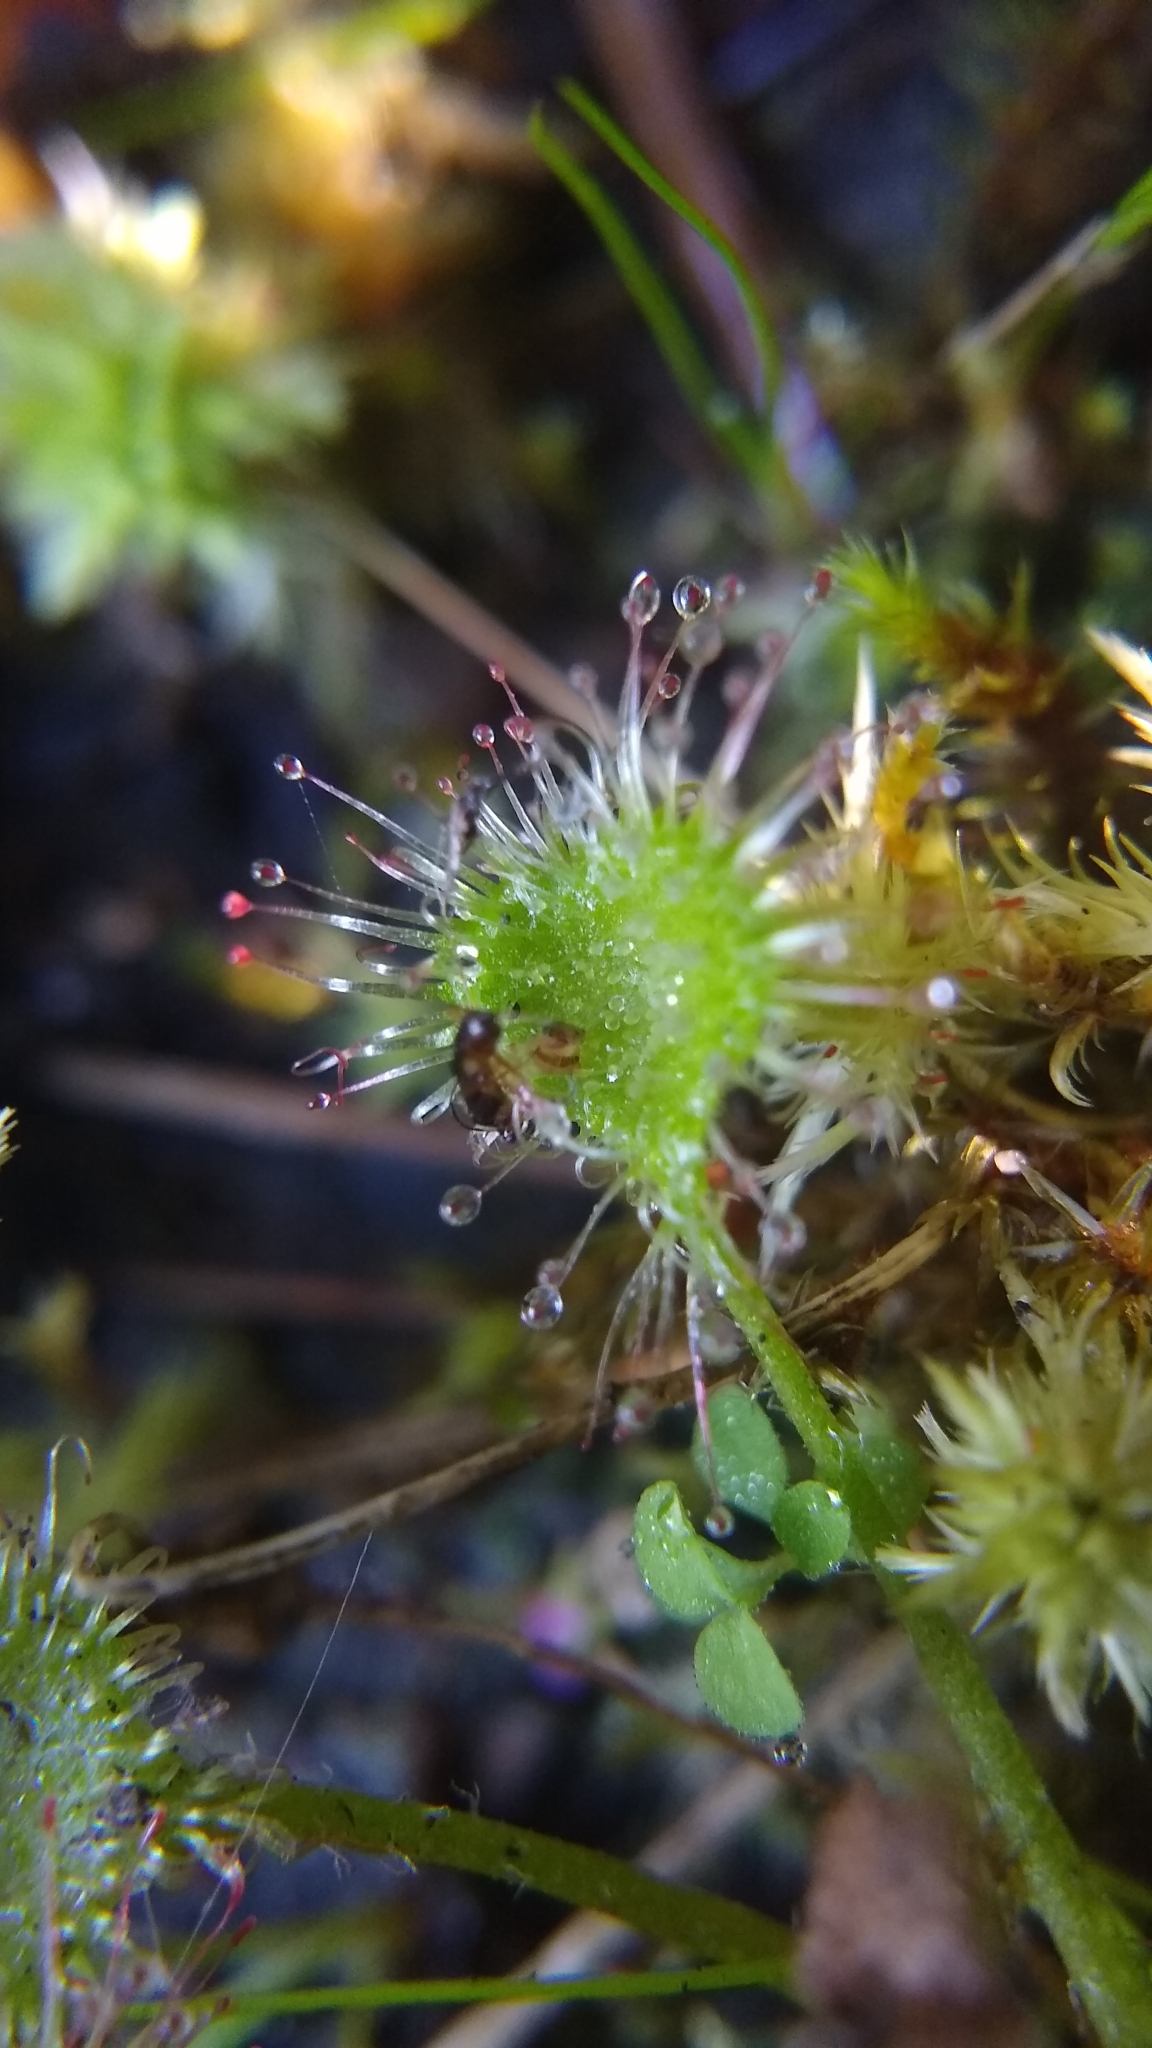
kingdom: Plantae
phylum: Tracheophyta
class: Magnoliopsida
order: Caryophyllales
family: Droseraceae
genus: Drosera
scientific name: Drosera rotundifolia
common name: Round-leaved sundew
